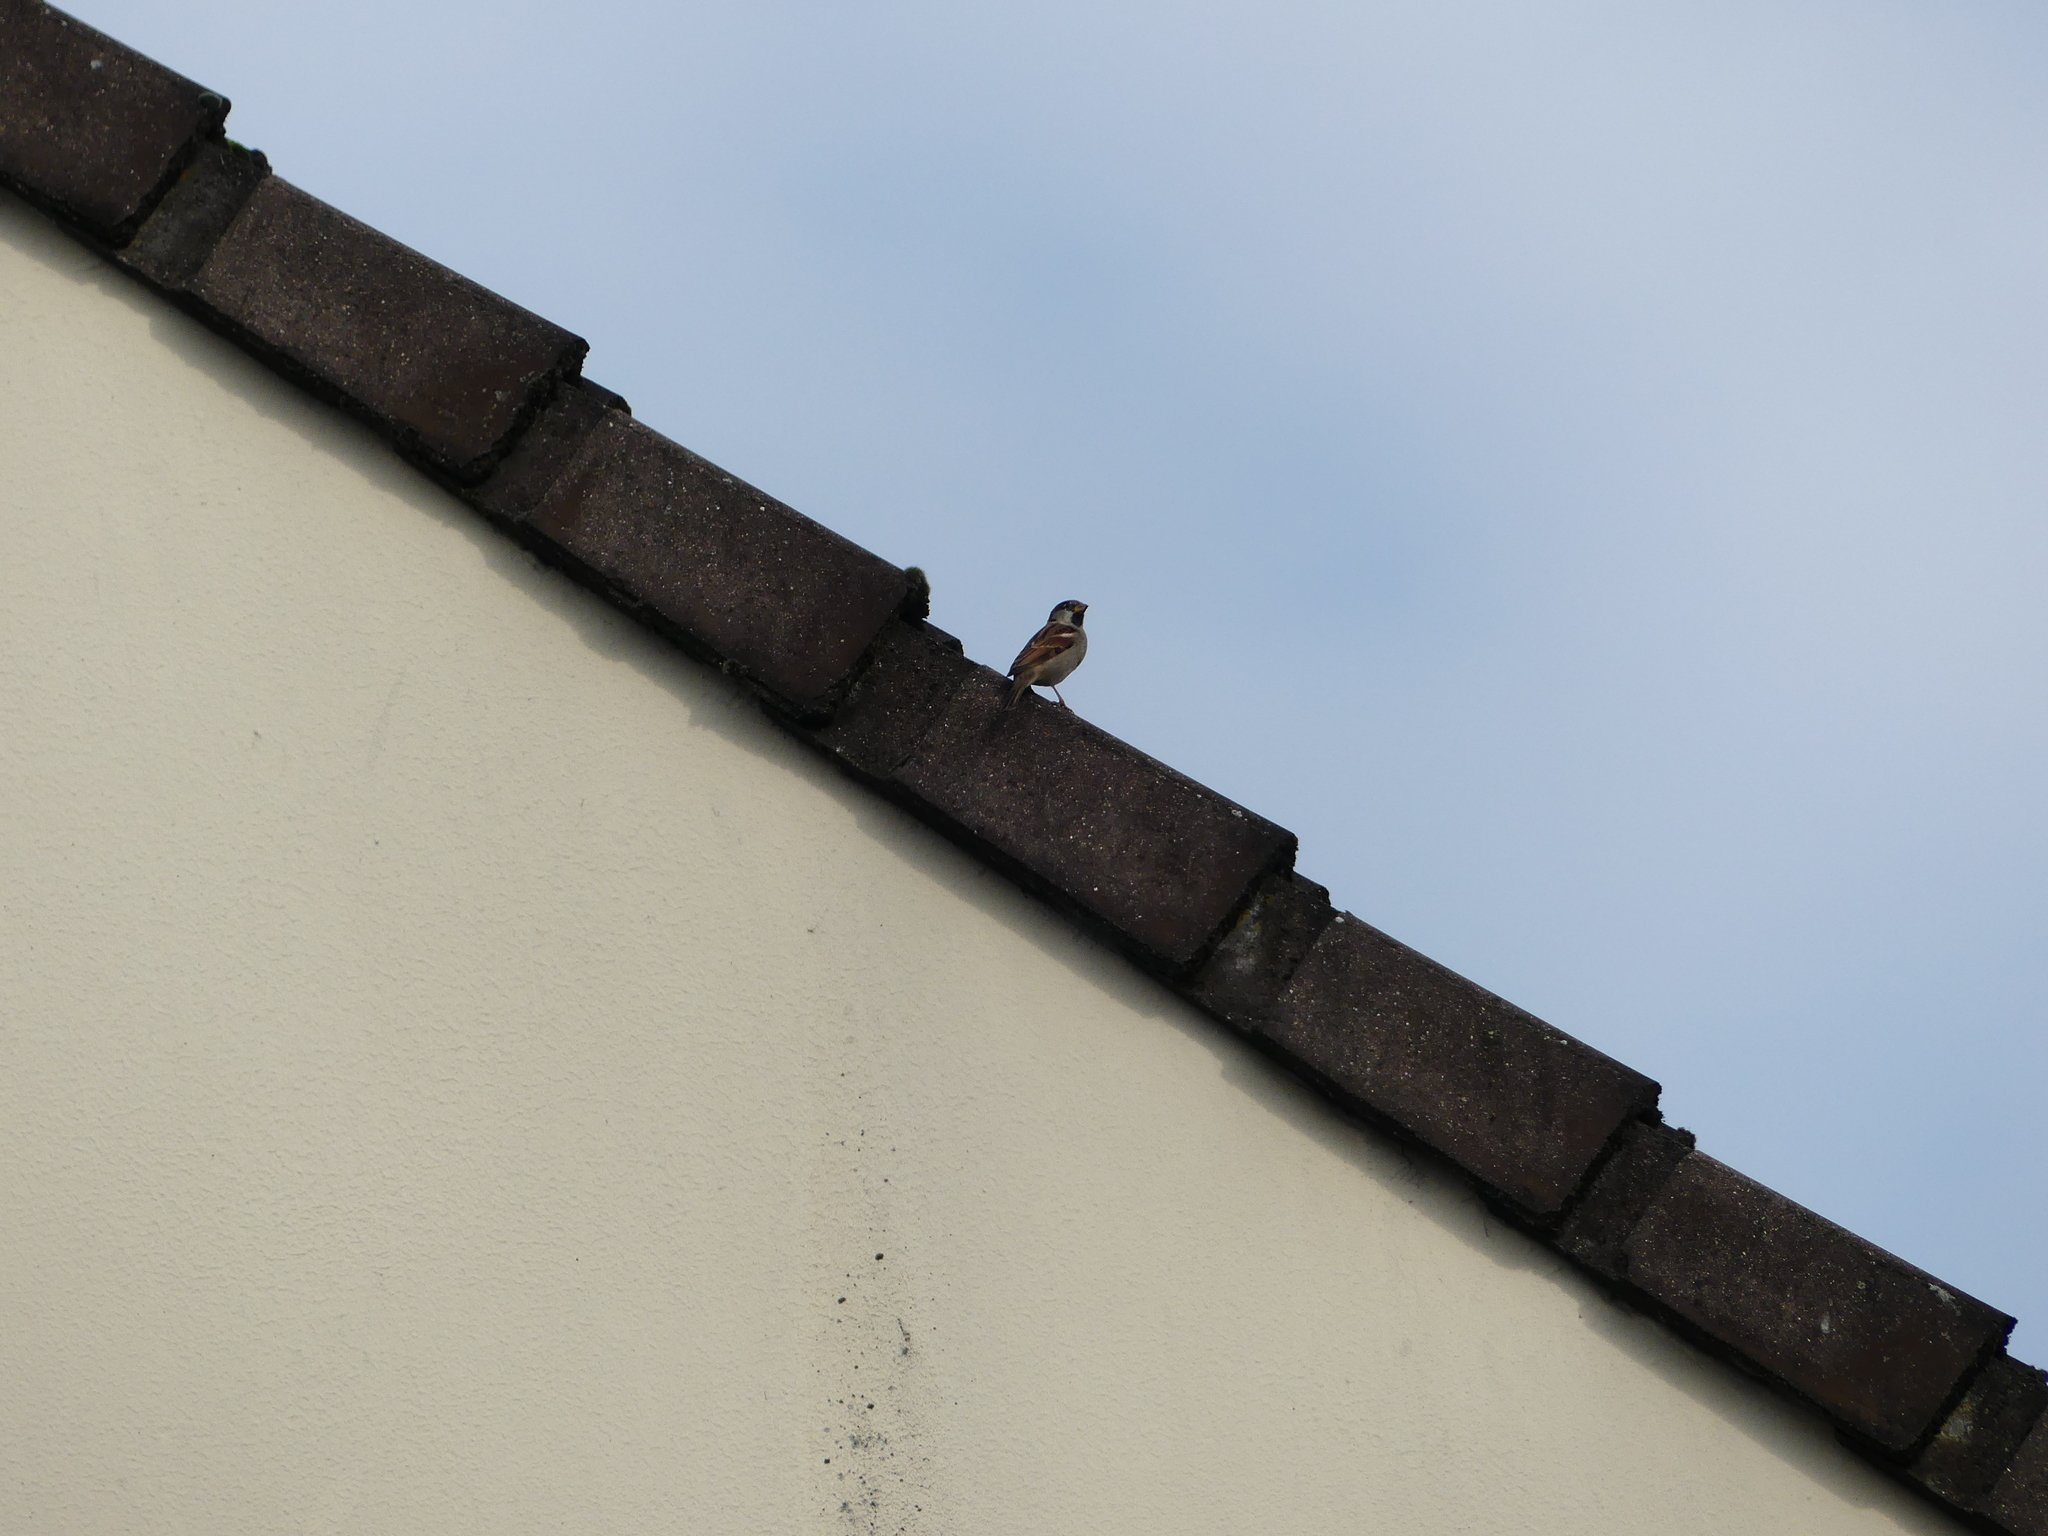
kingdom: Animalia
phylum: Chordata
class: Aves
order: Passeriformes
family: Passeridae
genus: Passer
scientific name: Passer domesticus
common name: House sparrow
